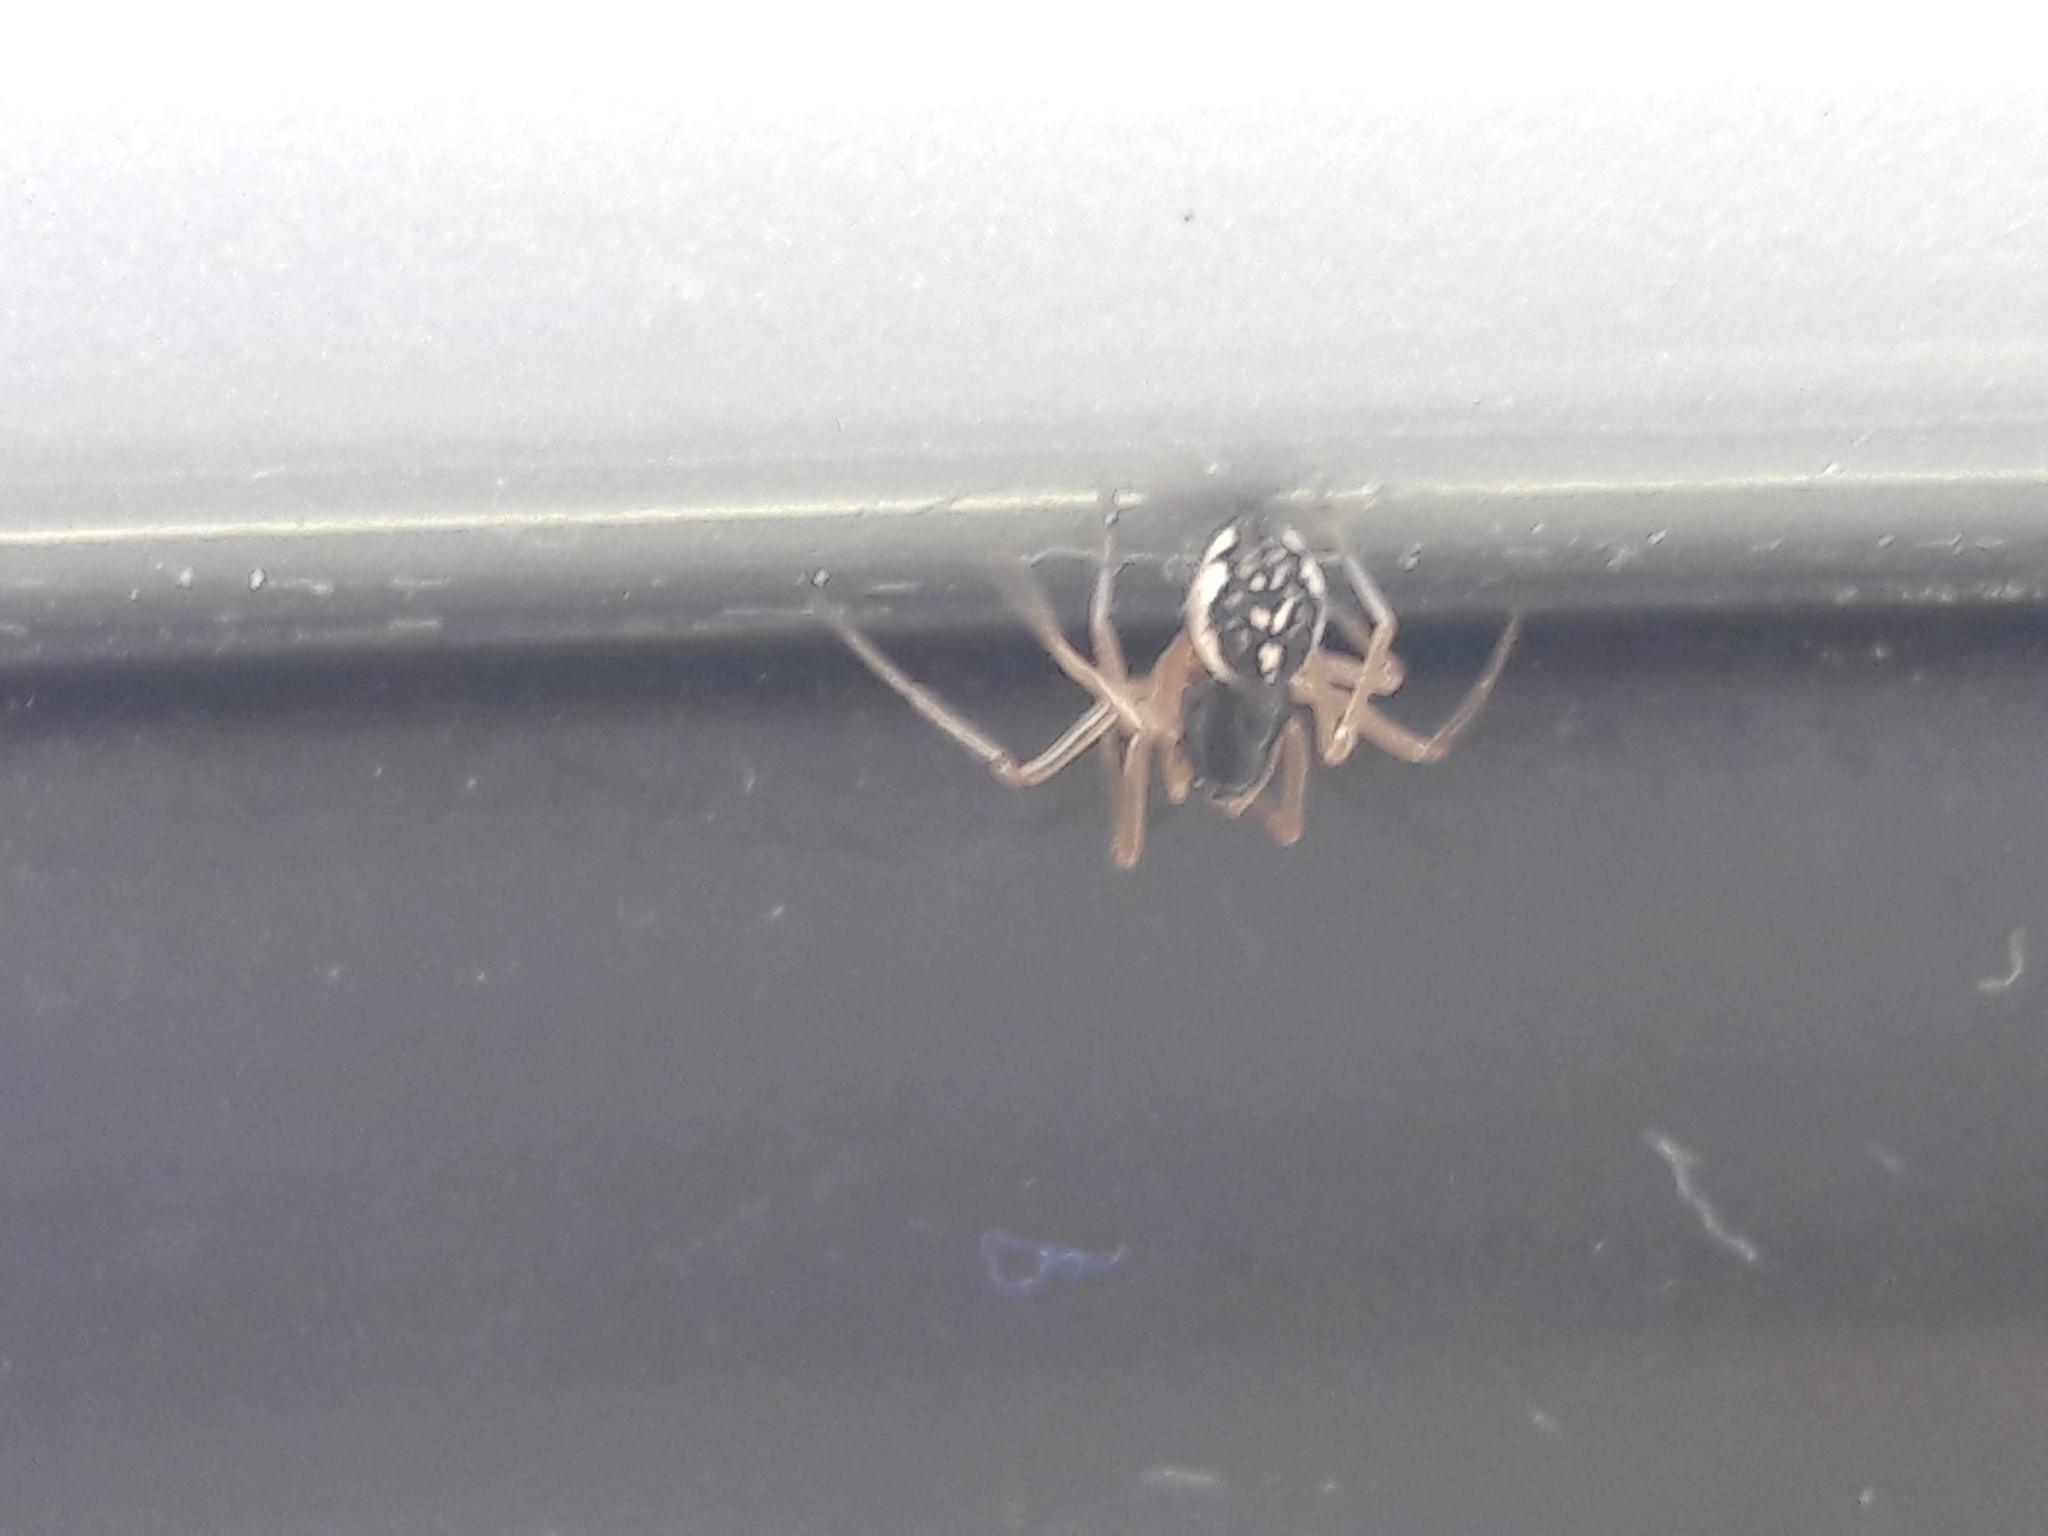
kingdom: Animalia
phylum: Arthropoda
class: Arachnida
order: Araneae
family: Tetragnathidae
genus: Pachygnatha
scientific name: Pachygnatha degeeri
